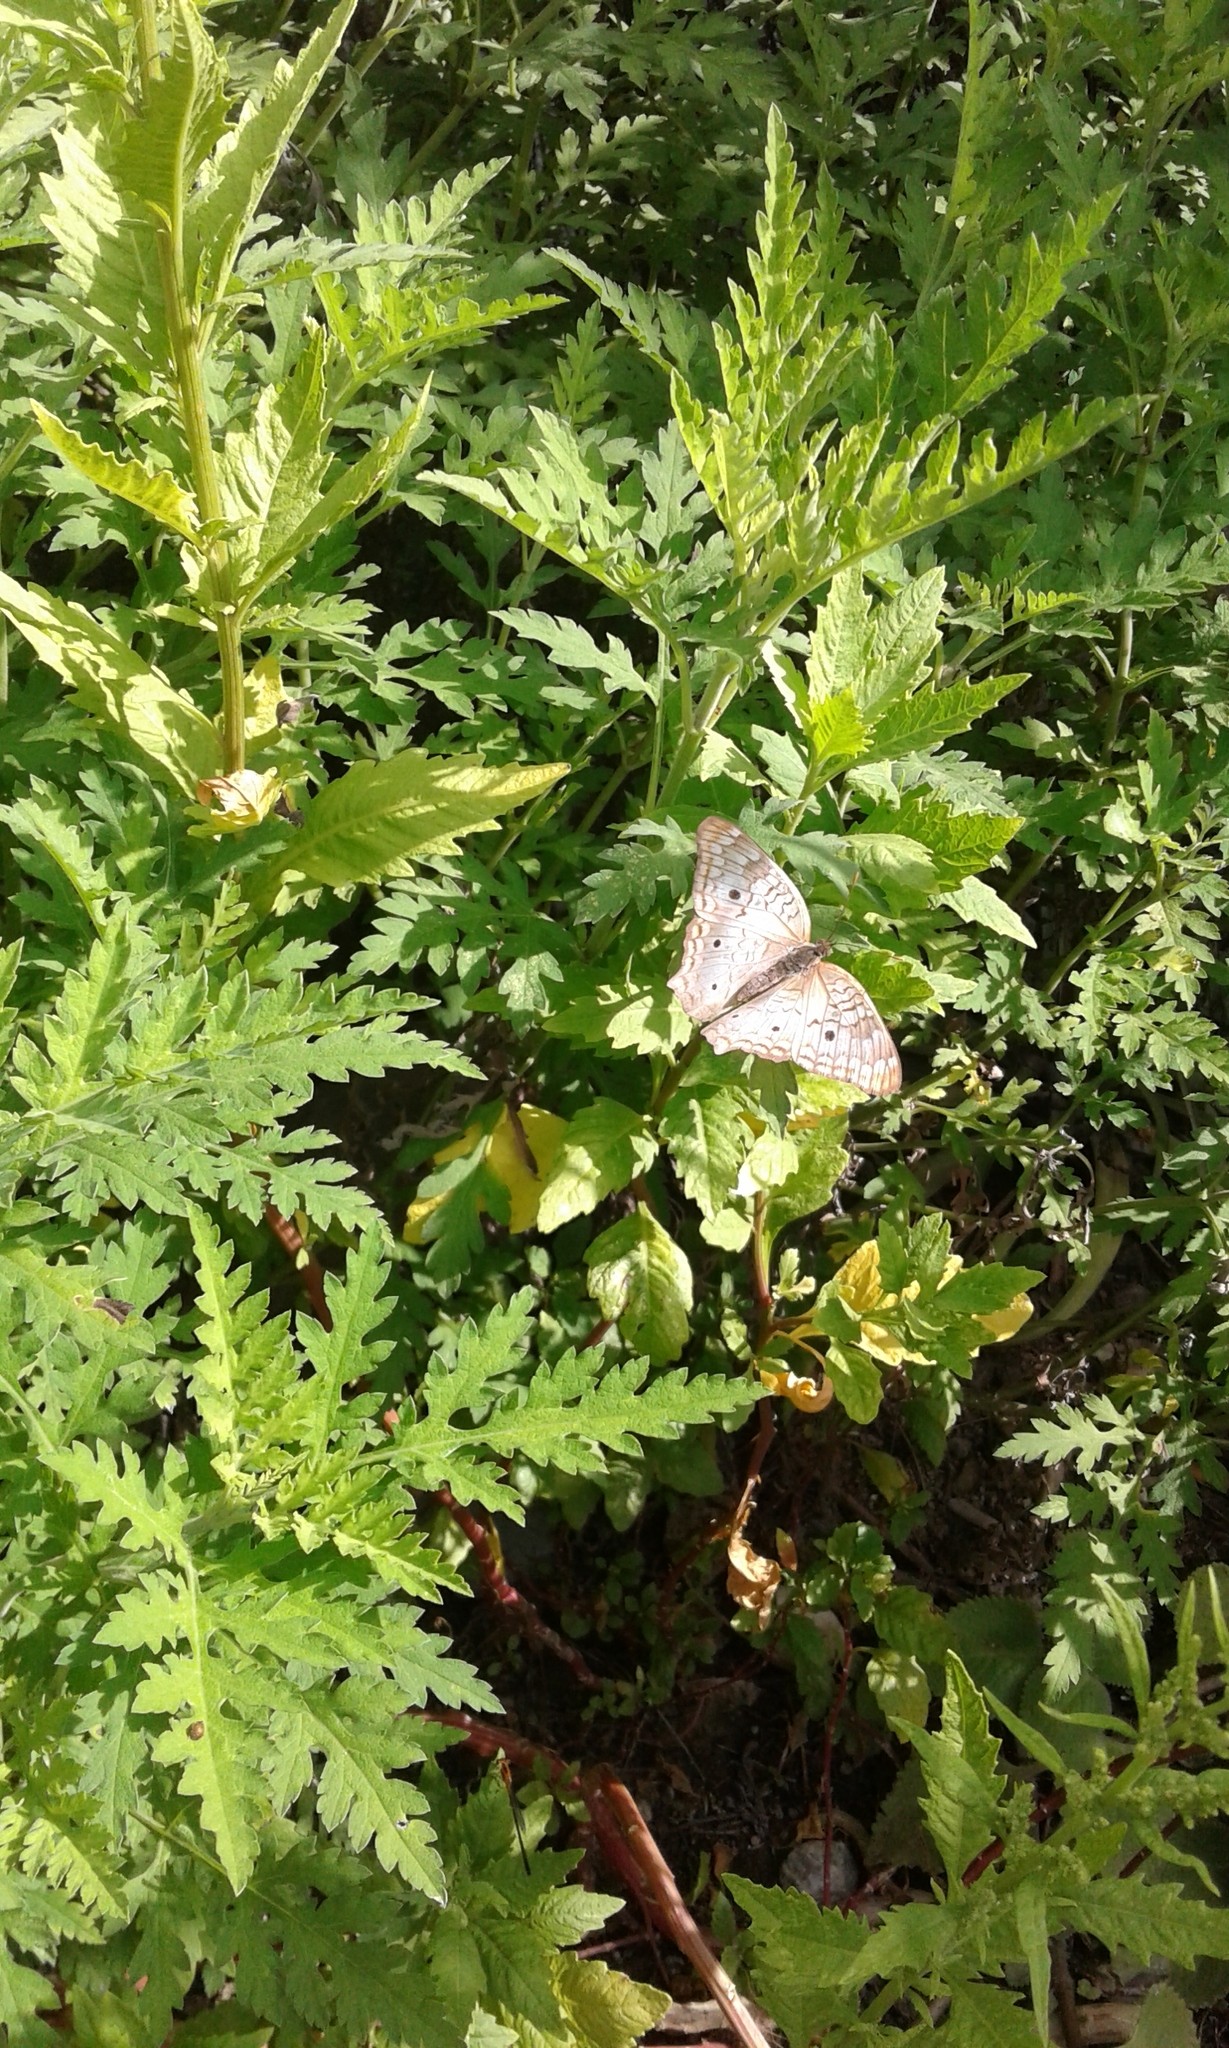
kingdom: Animalia
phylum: Arthropoda
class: Insecta
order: Lepidoptera
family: Nymphalidae
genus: Anartia
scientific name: Anartia jatrophae
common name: White peacock
